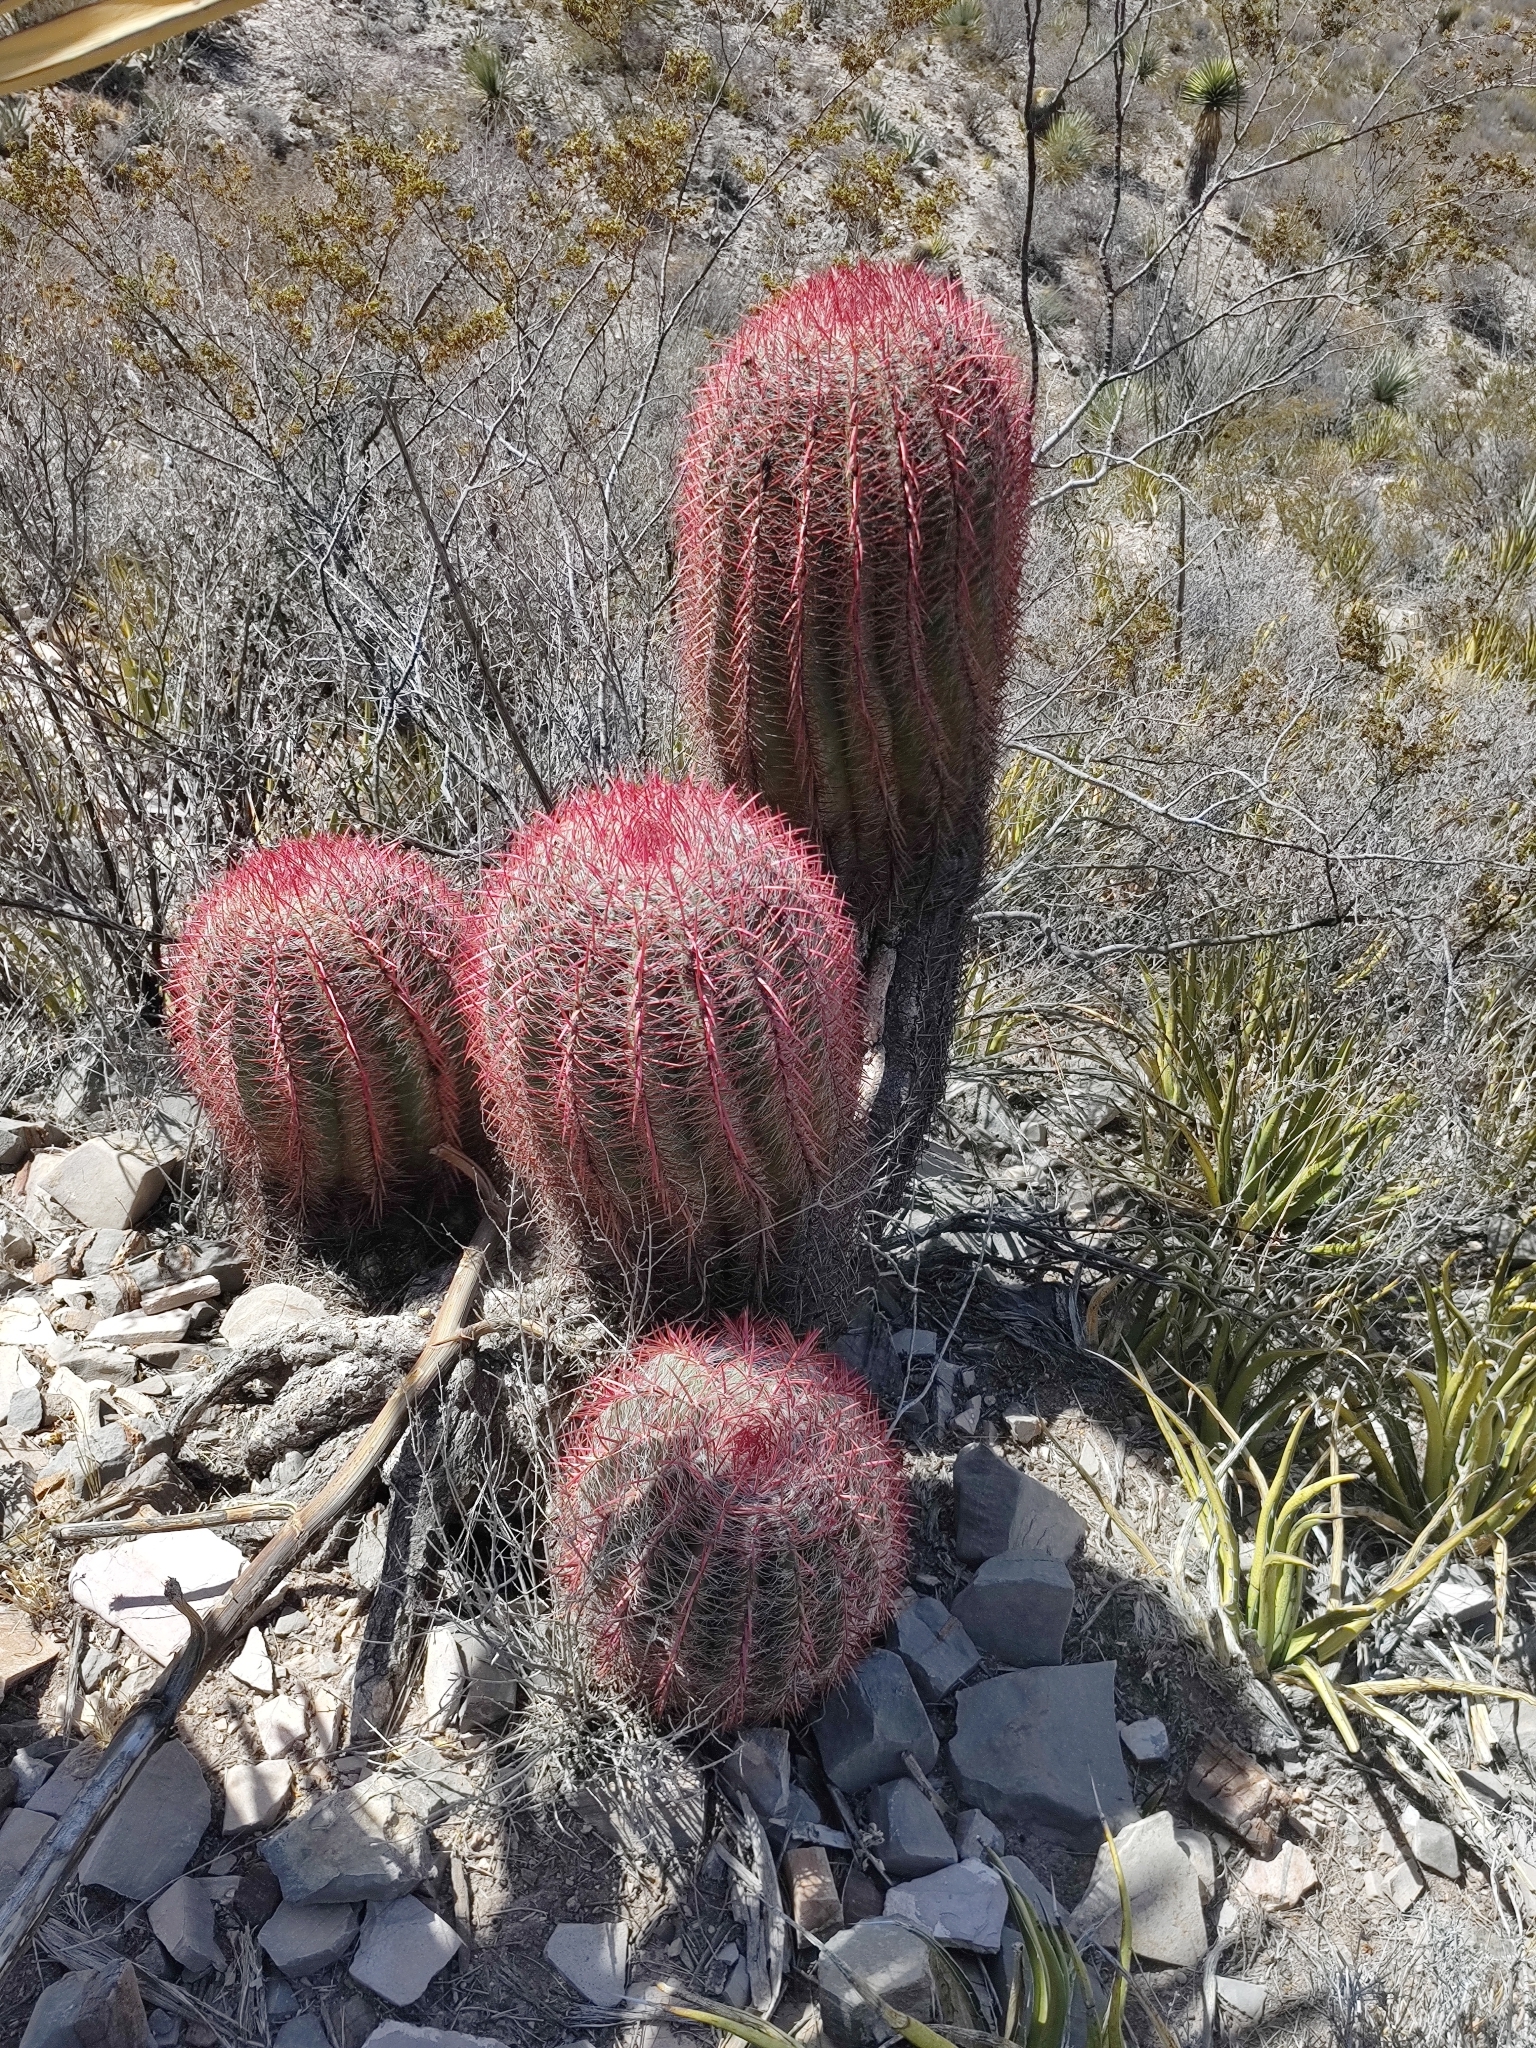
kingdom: Plantae
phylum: Tracheophyta
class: Magnoliopsida
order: Caryophyllales
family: Cactaceae
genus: Ferocactus
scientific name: Ferocactus pilosus
